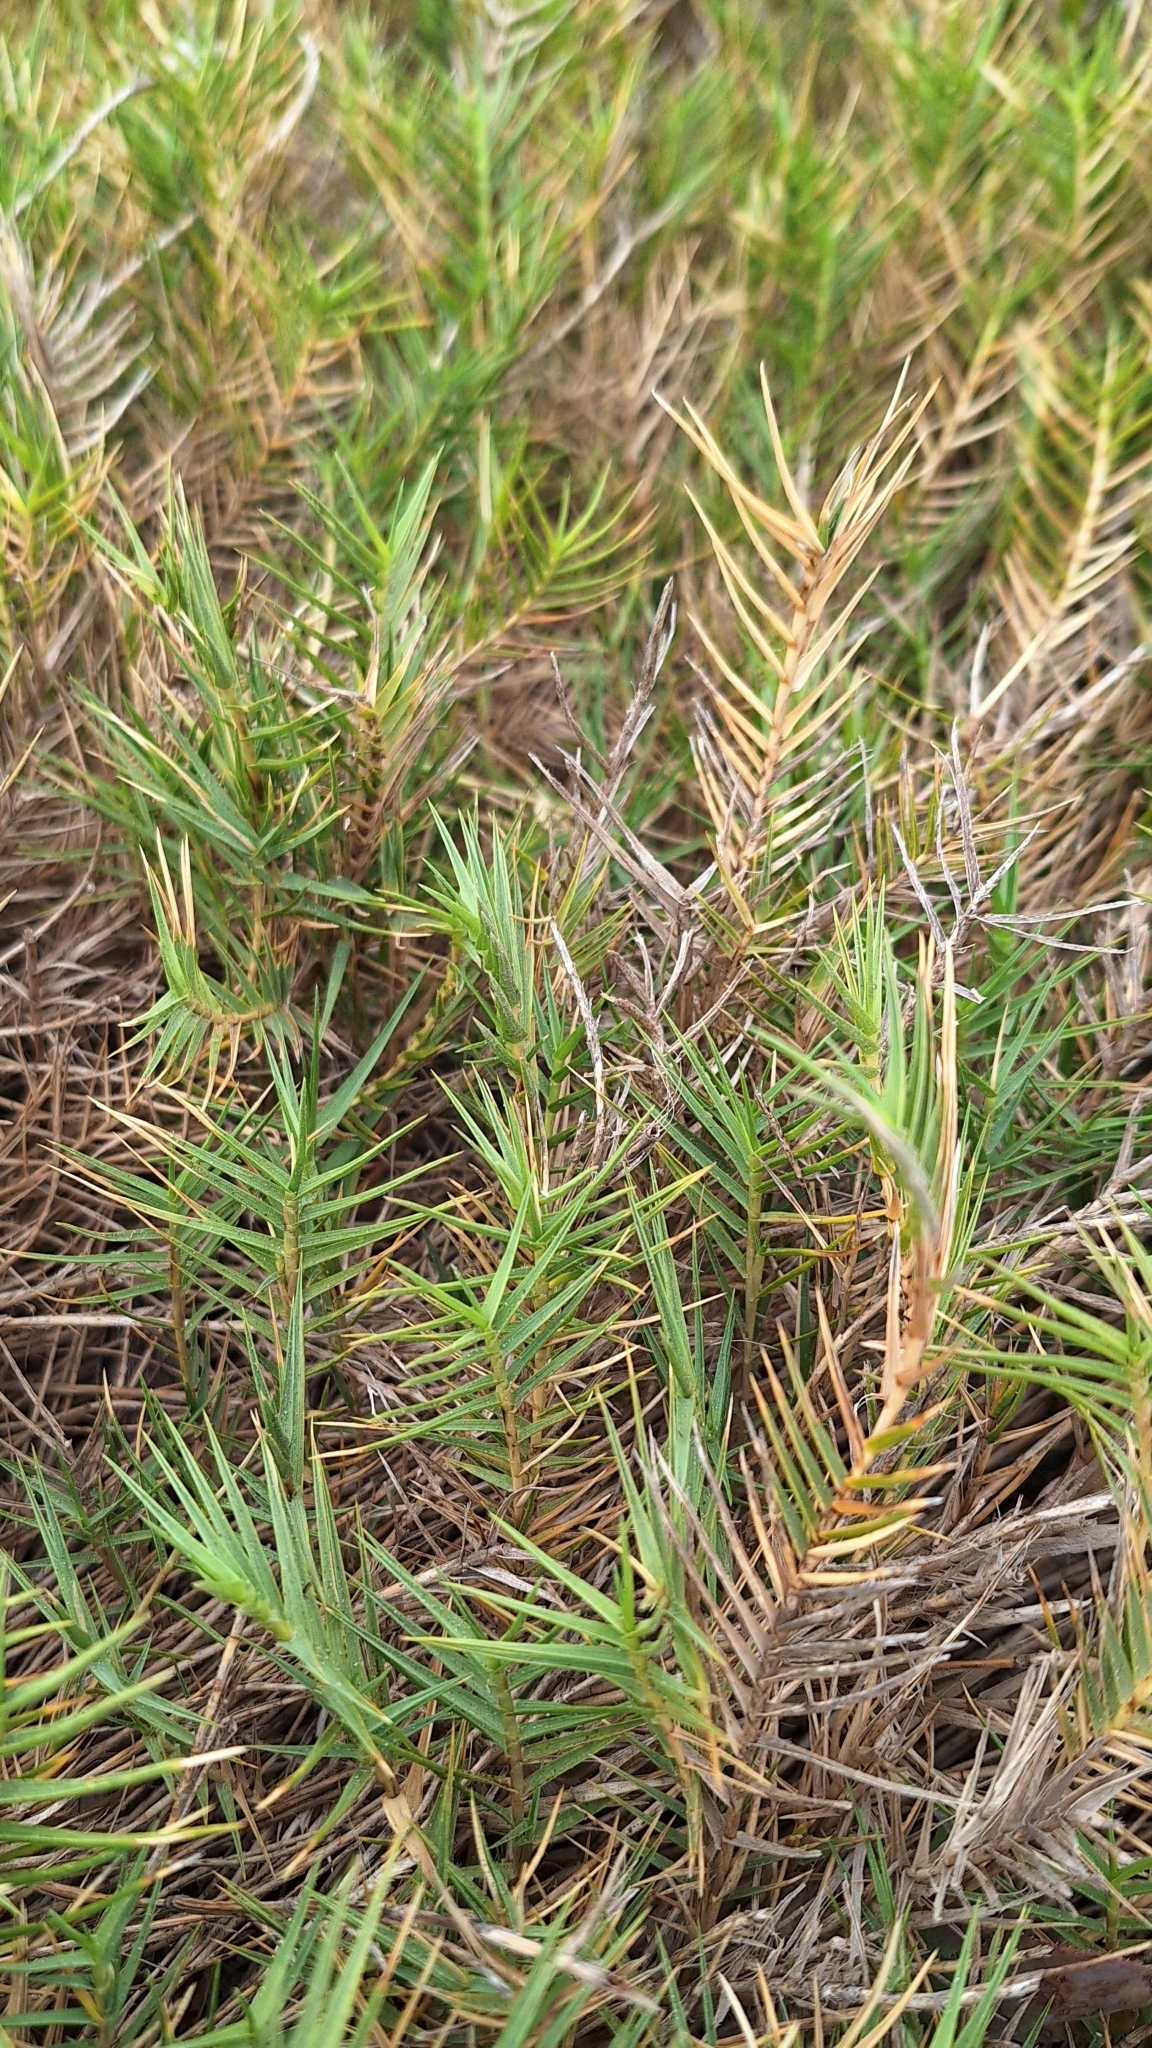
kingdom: Plantae
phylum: Tracheophyta
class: Liliopsida
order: Poales
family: Poaceae
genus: Distichlis
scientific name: Distichlis distichophylla
